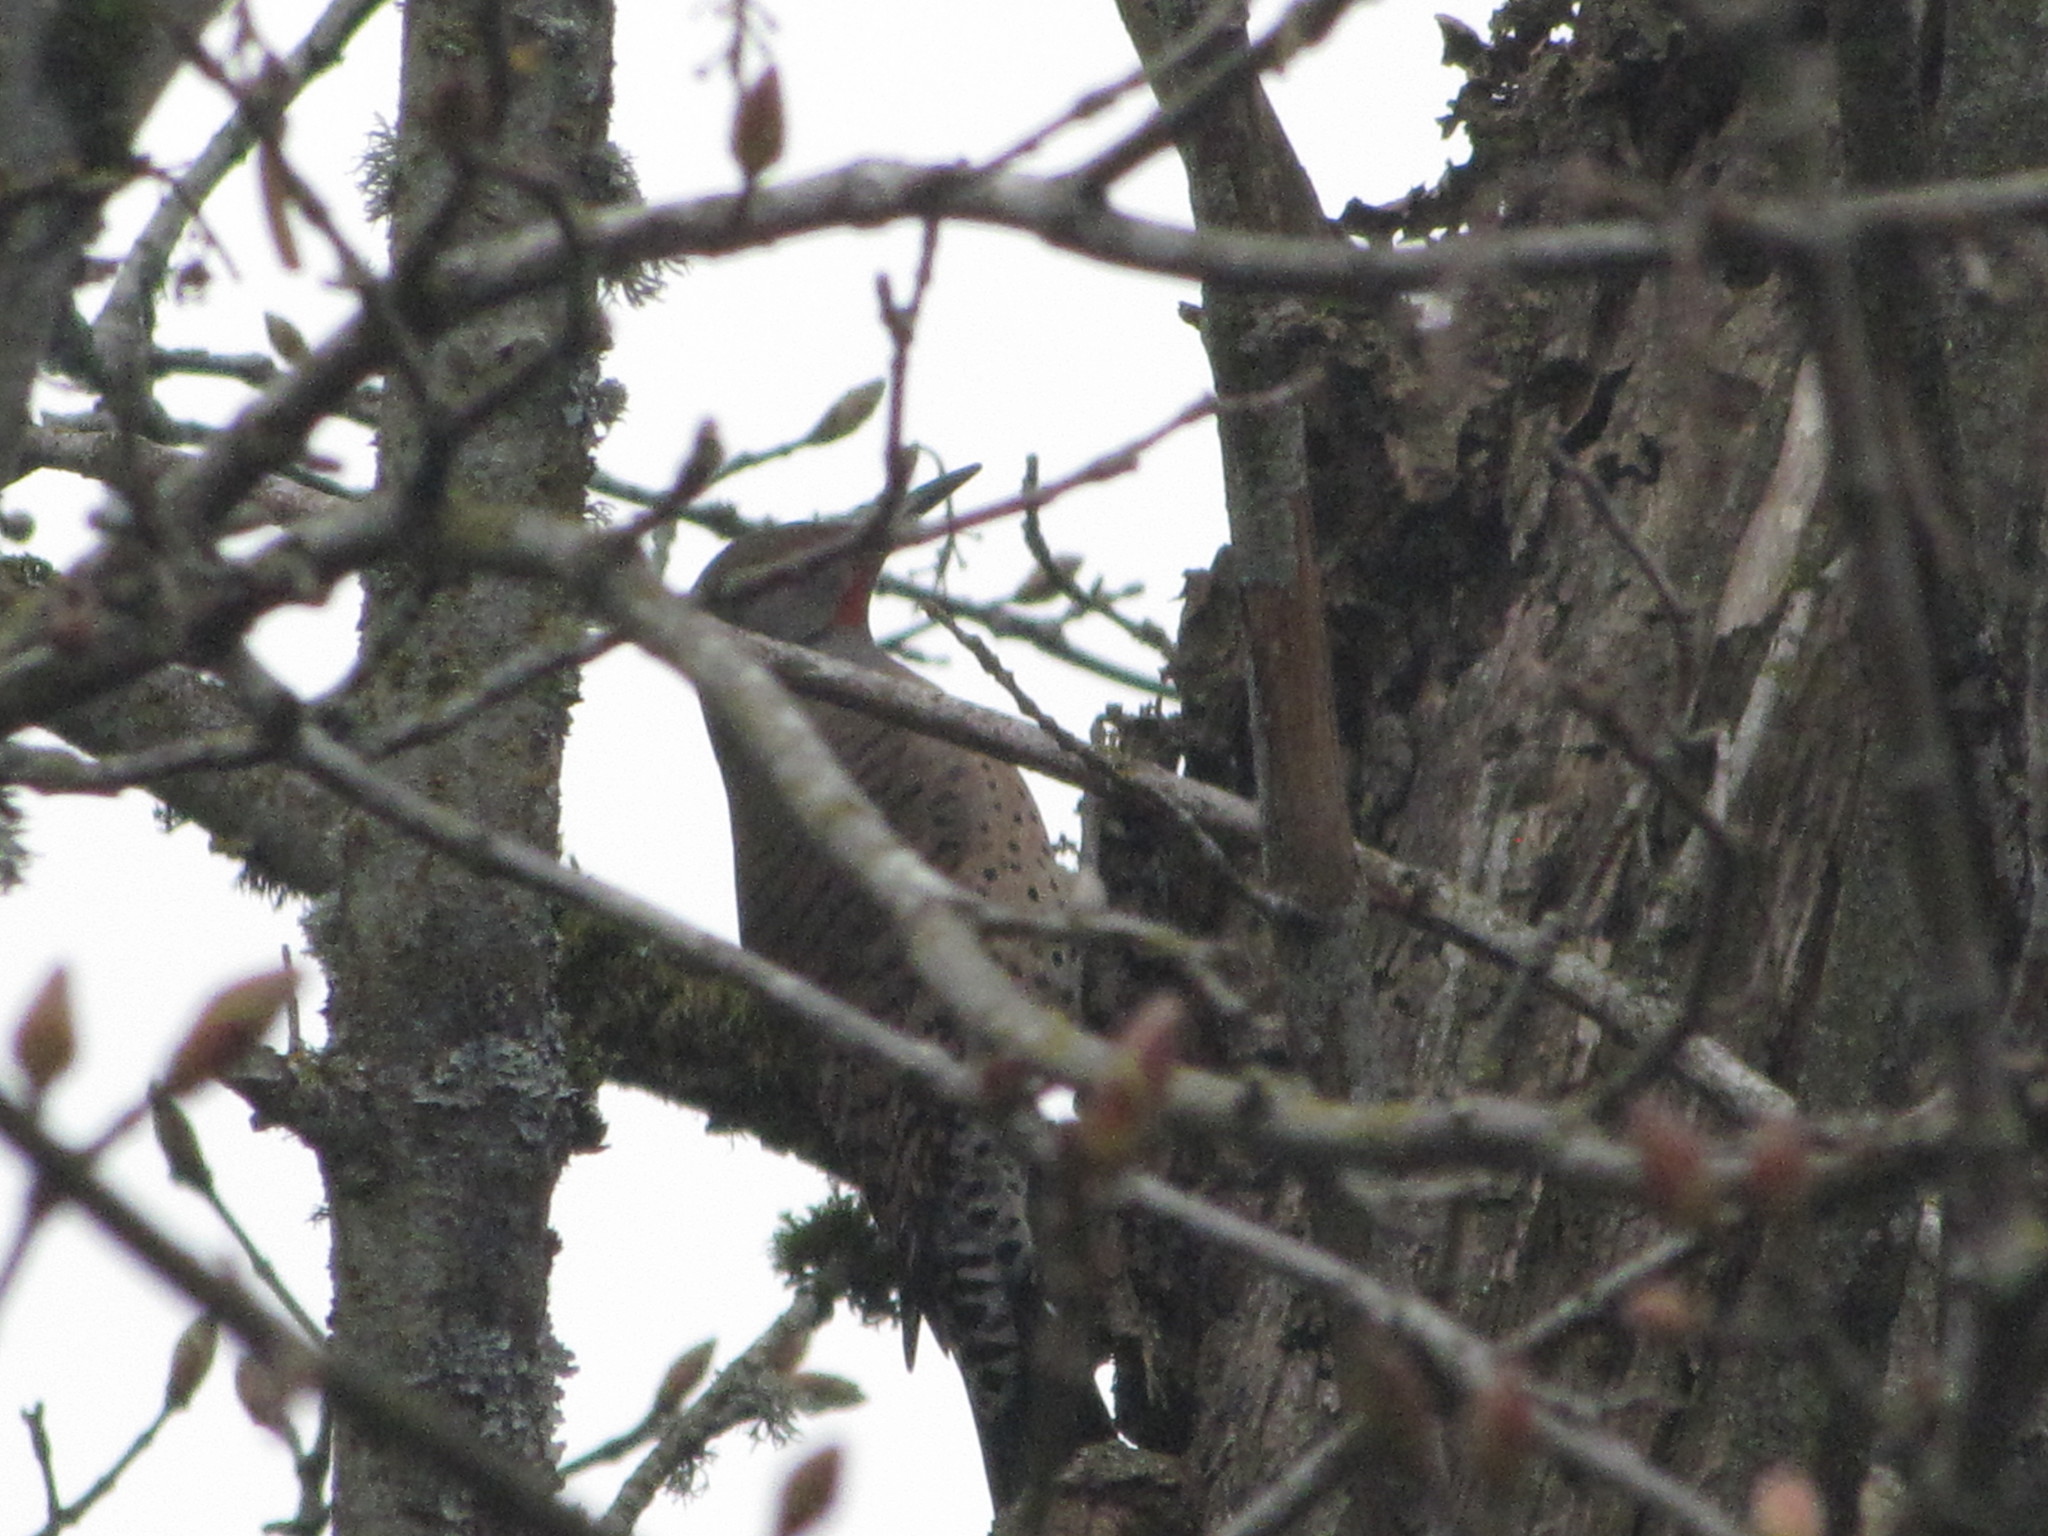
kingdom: Animalia
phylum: Chordata
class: Aves
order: Piciformes
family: Picidae
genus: Colaptes
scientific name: Colaptes auratus
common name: Northern flicker
